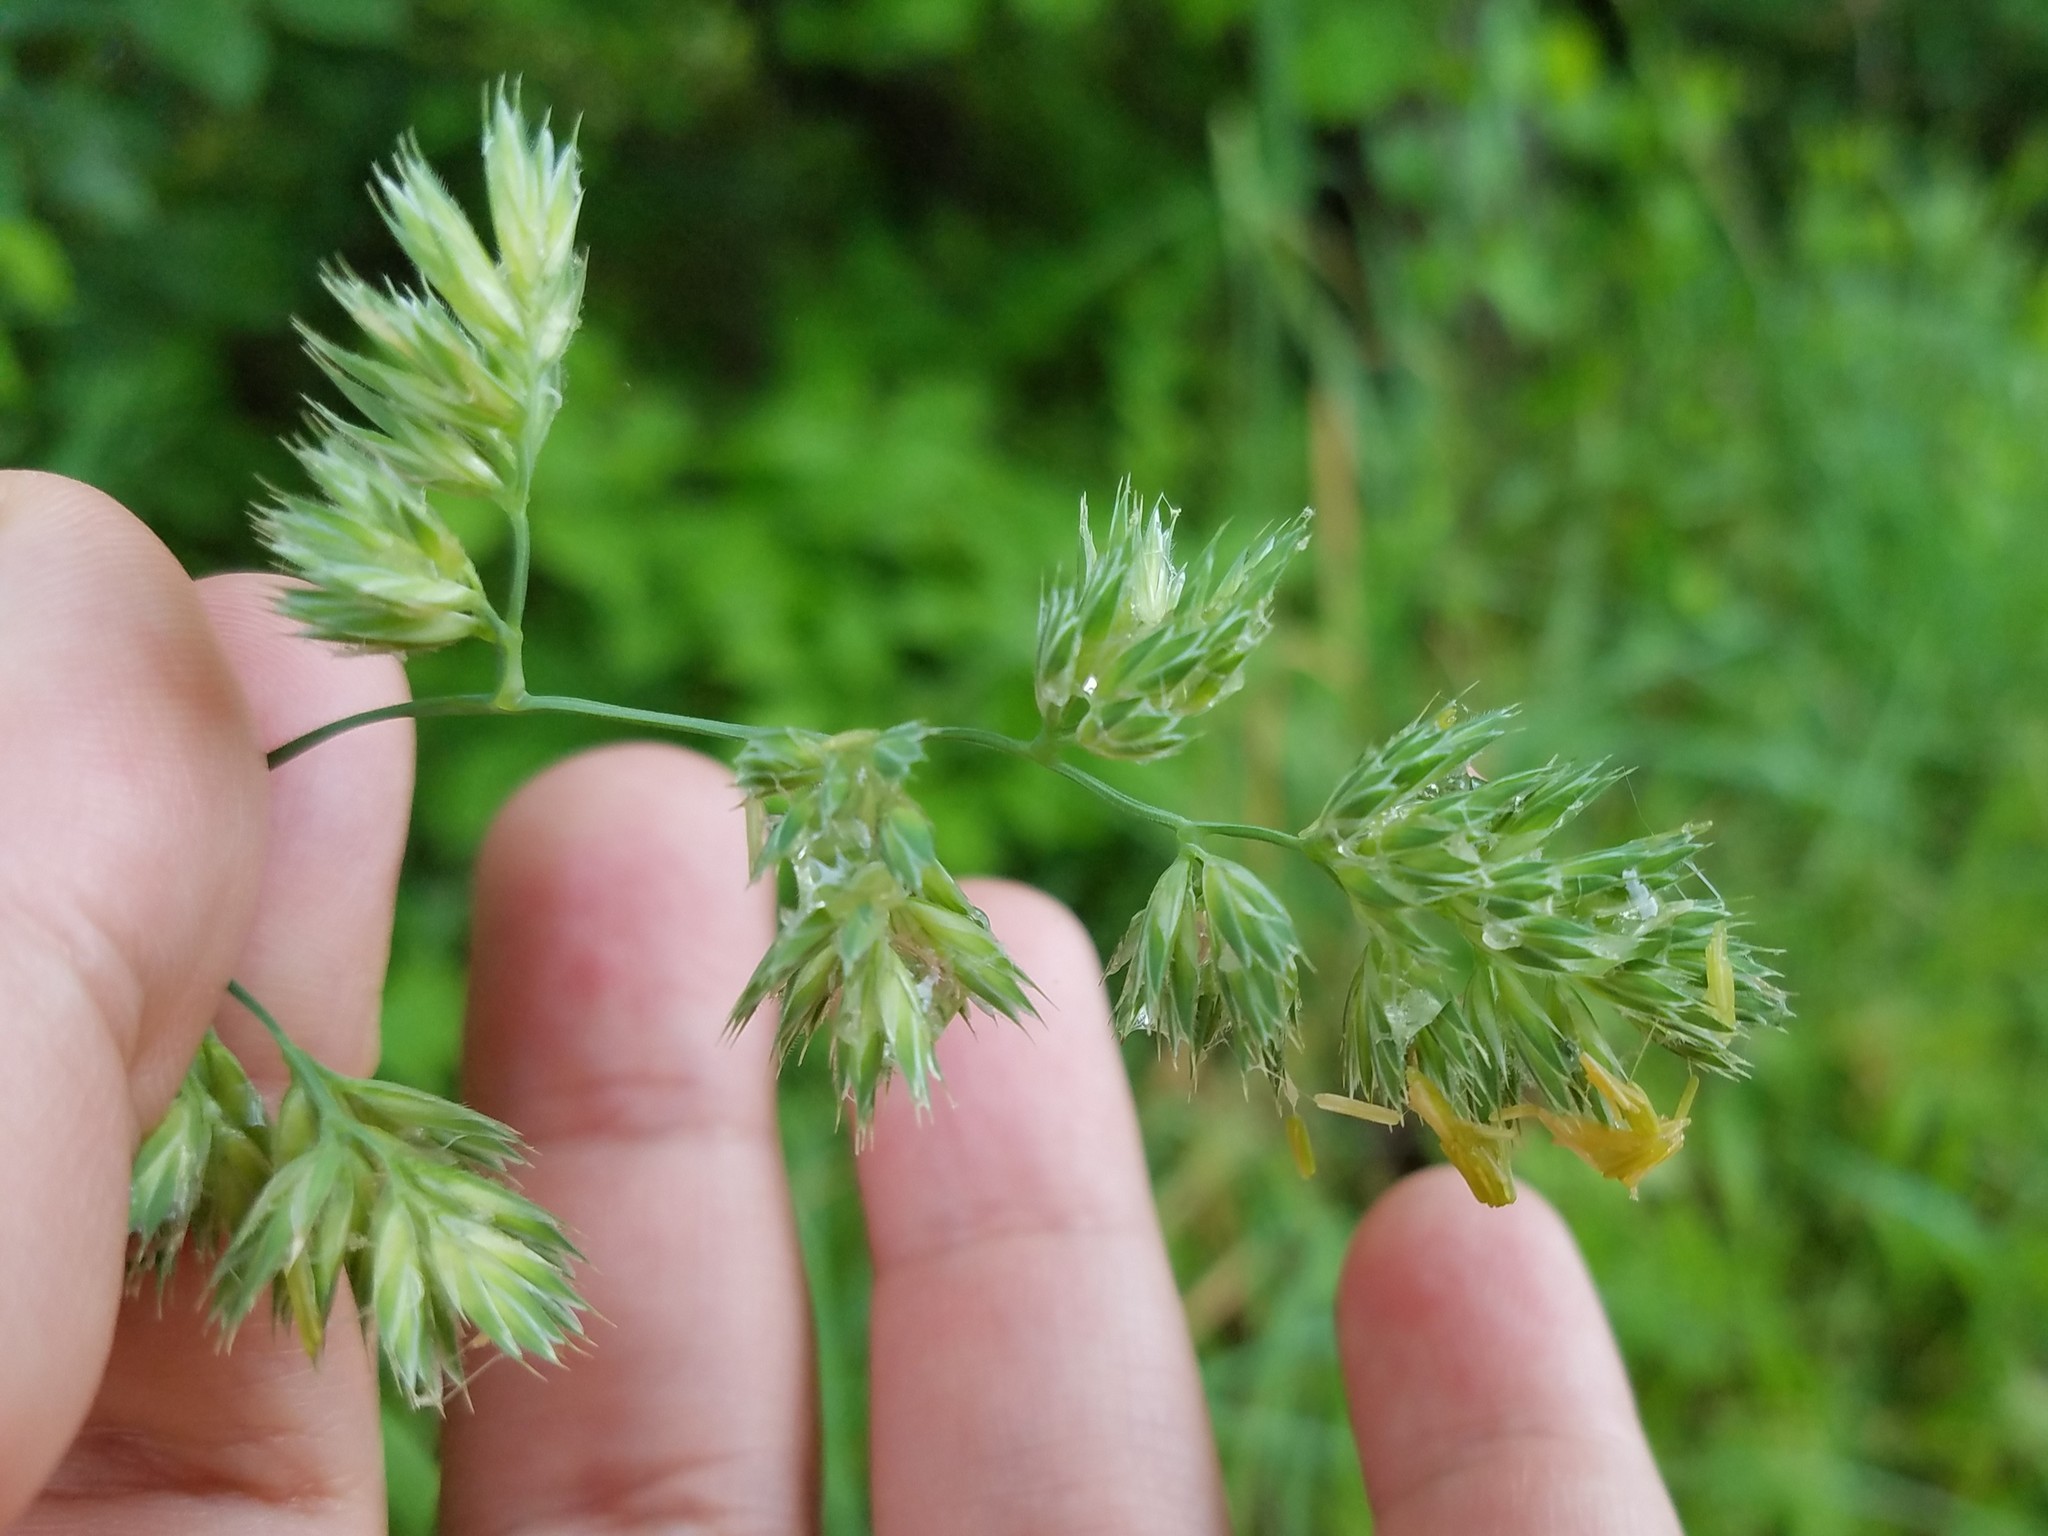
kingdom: Plantae
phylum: Tracheophyta
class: Liliopsida
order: Poales
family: Poaceae
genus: Dactylis
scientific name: Dactylis glomerata
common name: Orchardgrass
